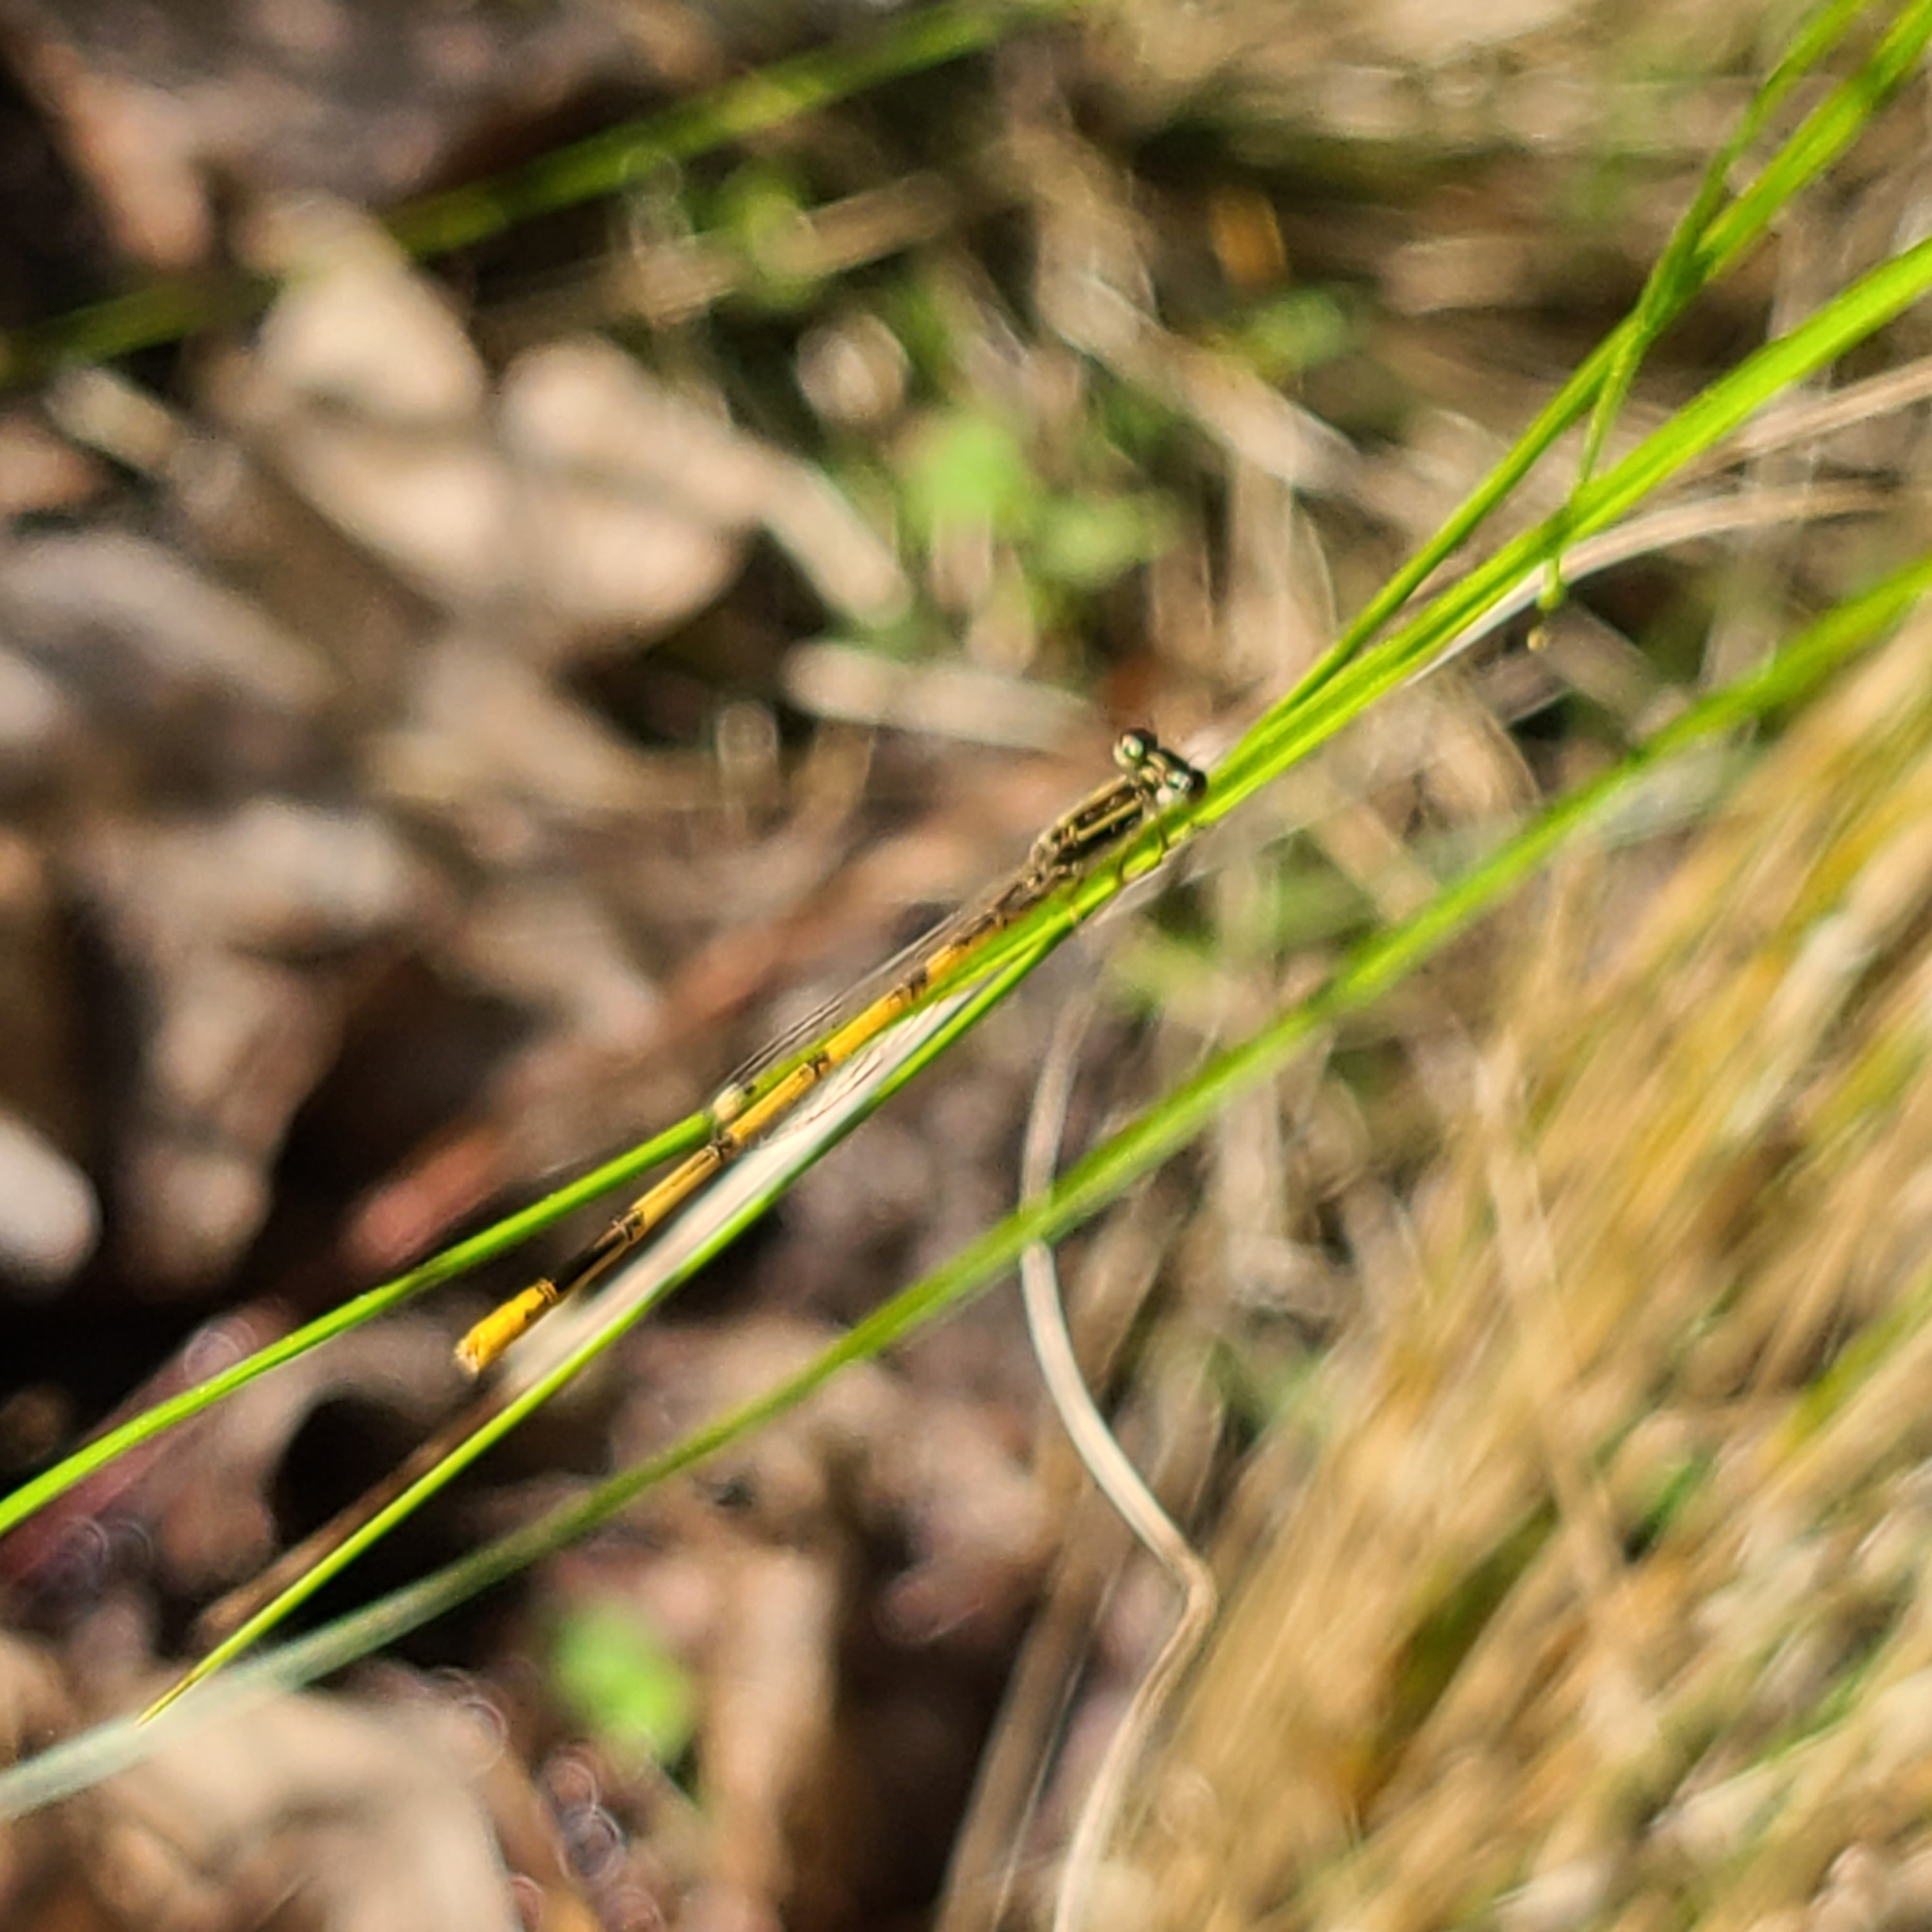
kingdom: Animalia
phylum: Arthropoda
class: Insecta
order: Odonata
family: Coenagrionidae
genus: Ischnura
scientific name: Ischnura hastata
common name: Citrine forktail
